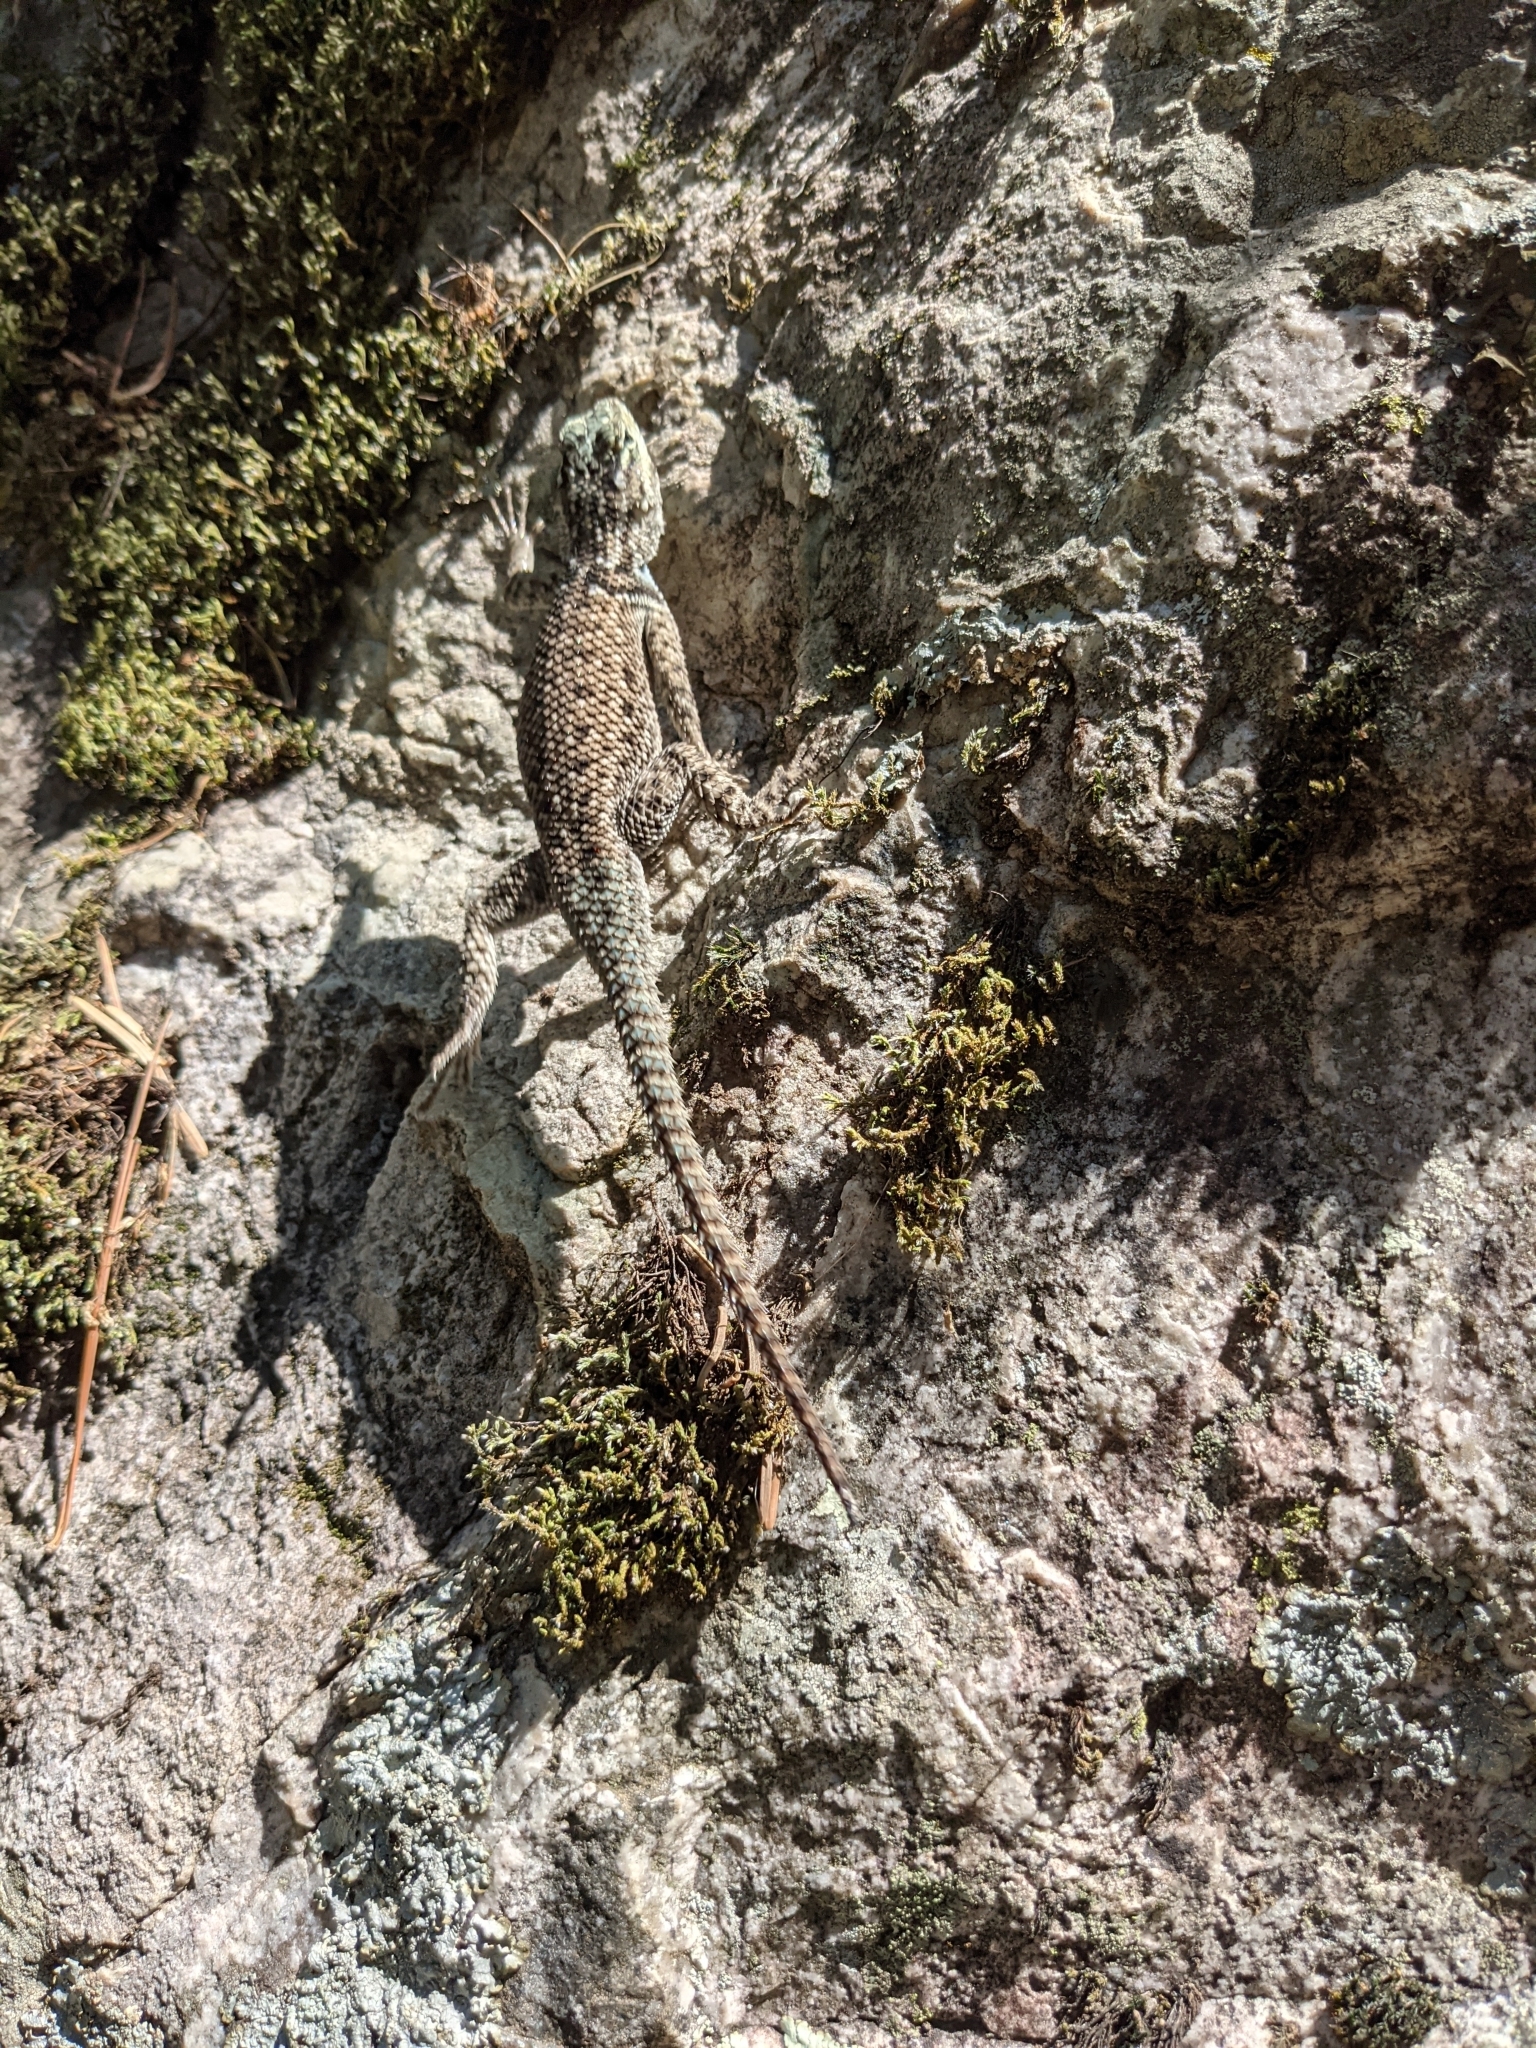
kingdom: Animalia
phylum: Chordata
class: Squamata
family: Phrynosomatidae
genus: Sceloporus
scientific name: Sceloporus jarrovii
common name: Yarrow's spiny lizard
